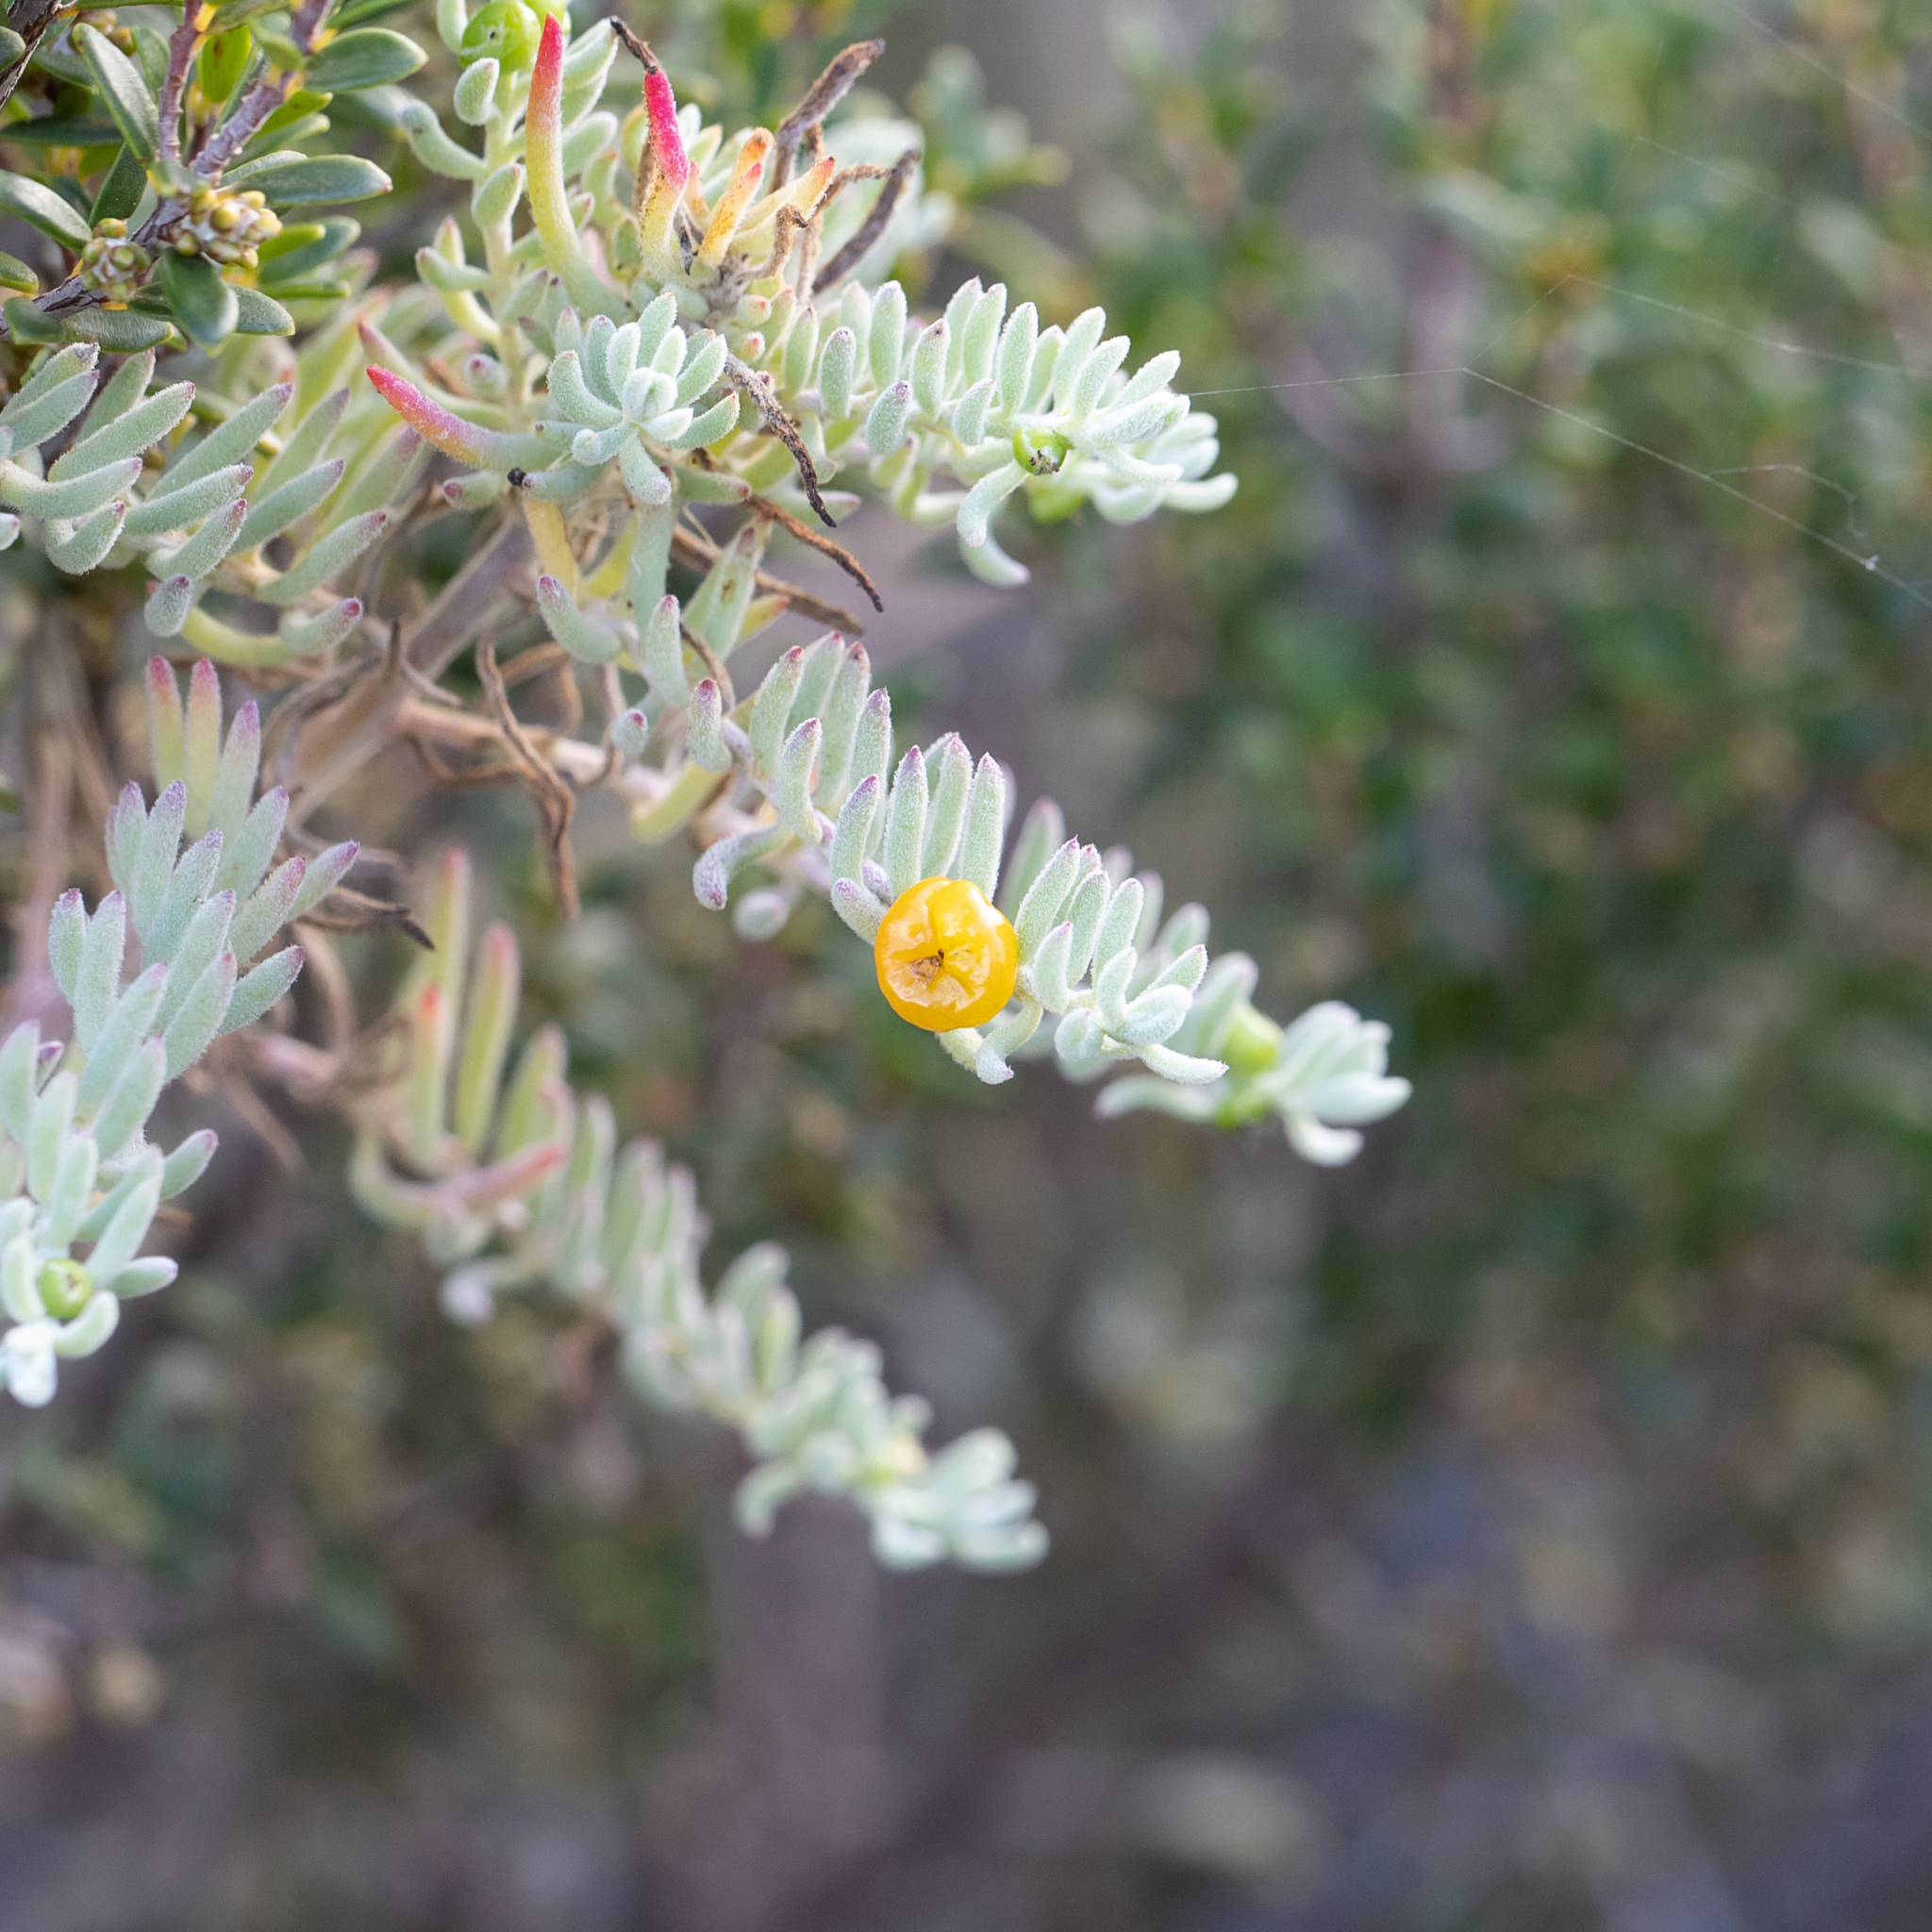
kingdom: Plantae
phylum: Tracheophyta
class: Magnoliopsida
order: Caryophyllales
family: Amaranthaceae
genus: Enchylaena
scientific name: Enchylaena tomentosa
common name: Ruby saltbush
